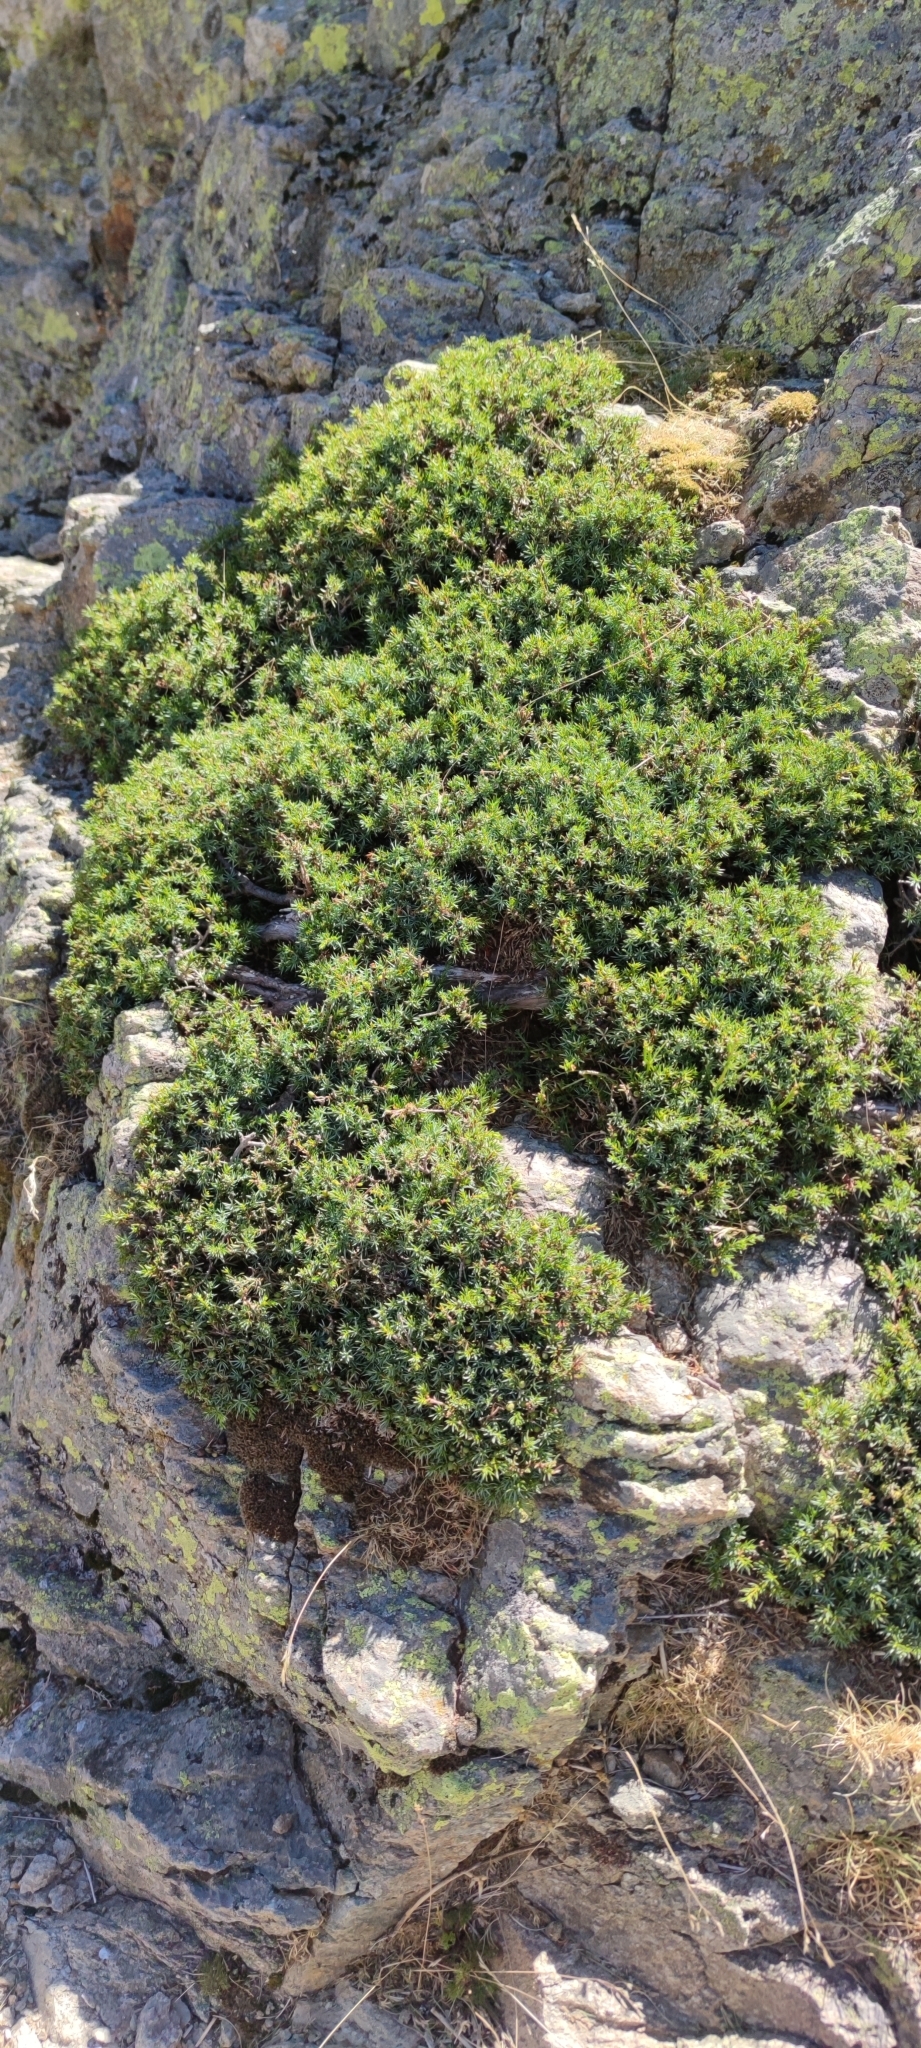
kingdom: Plantae
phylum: Tracheophyta
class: Pinopsida
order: Pinales
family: Cupressaceae
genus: Juniperus
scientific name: Juniperus communis
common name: Common juniper
